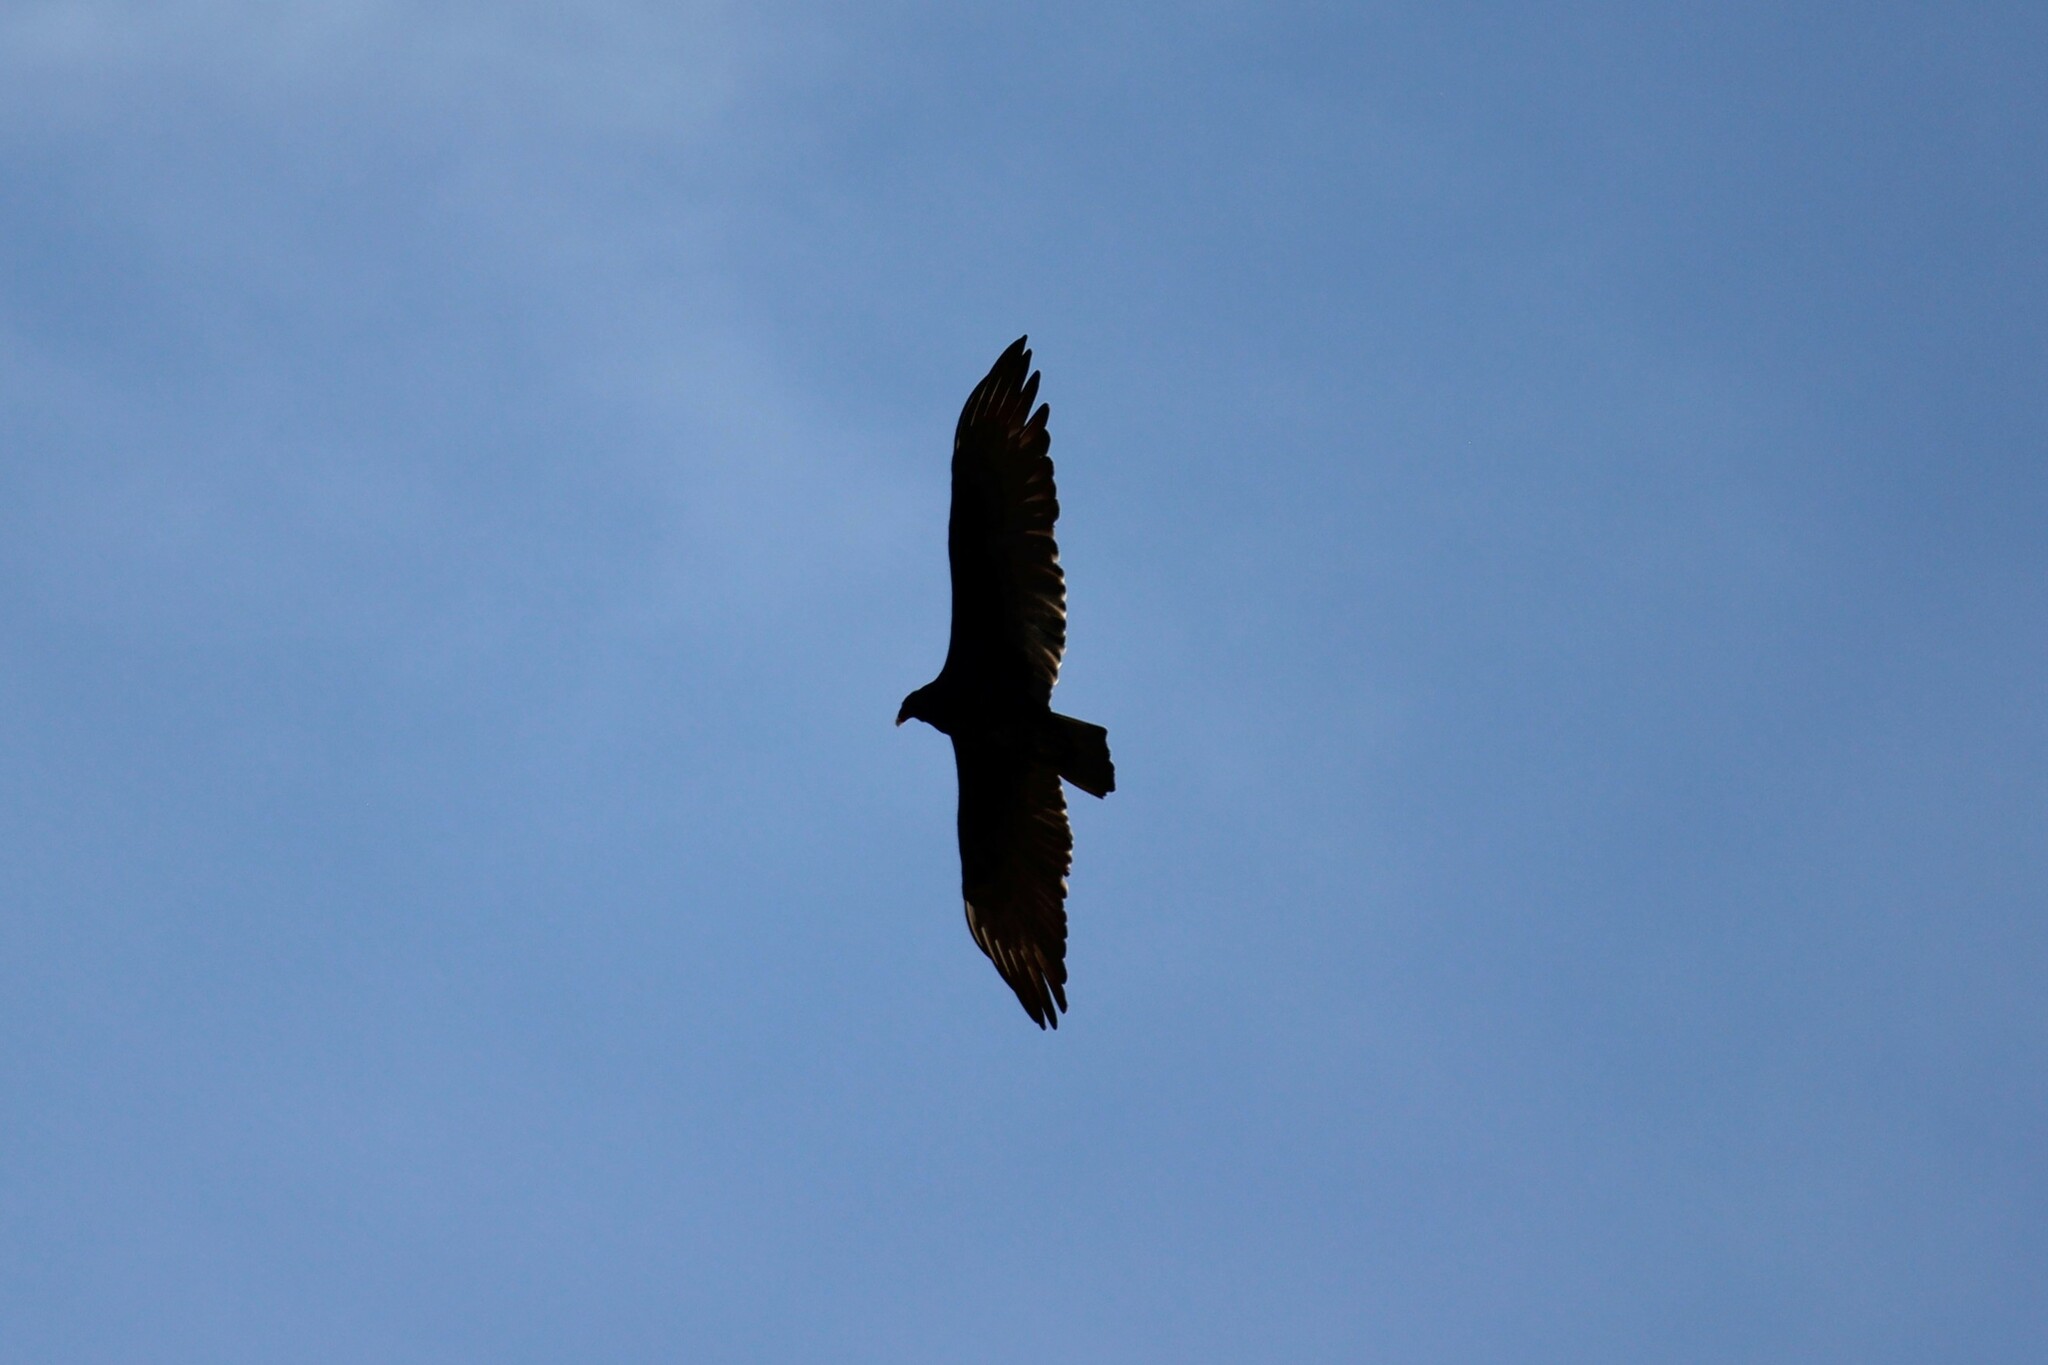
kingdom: Animalia
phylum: Chordata
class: Aves
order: Accipitriformes
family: Cathartidae
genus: Cathartes
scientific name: Cathartes aura
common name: Turkey vulture
